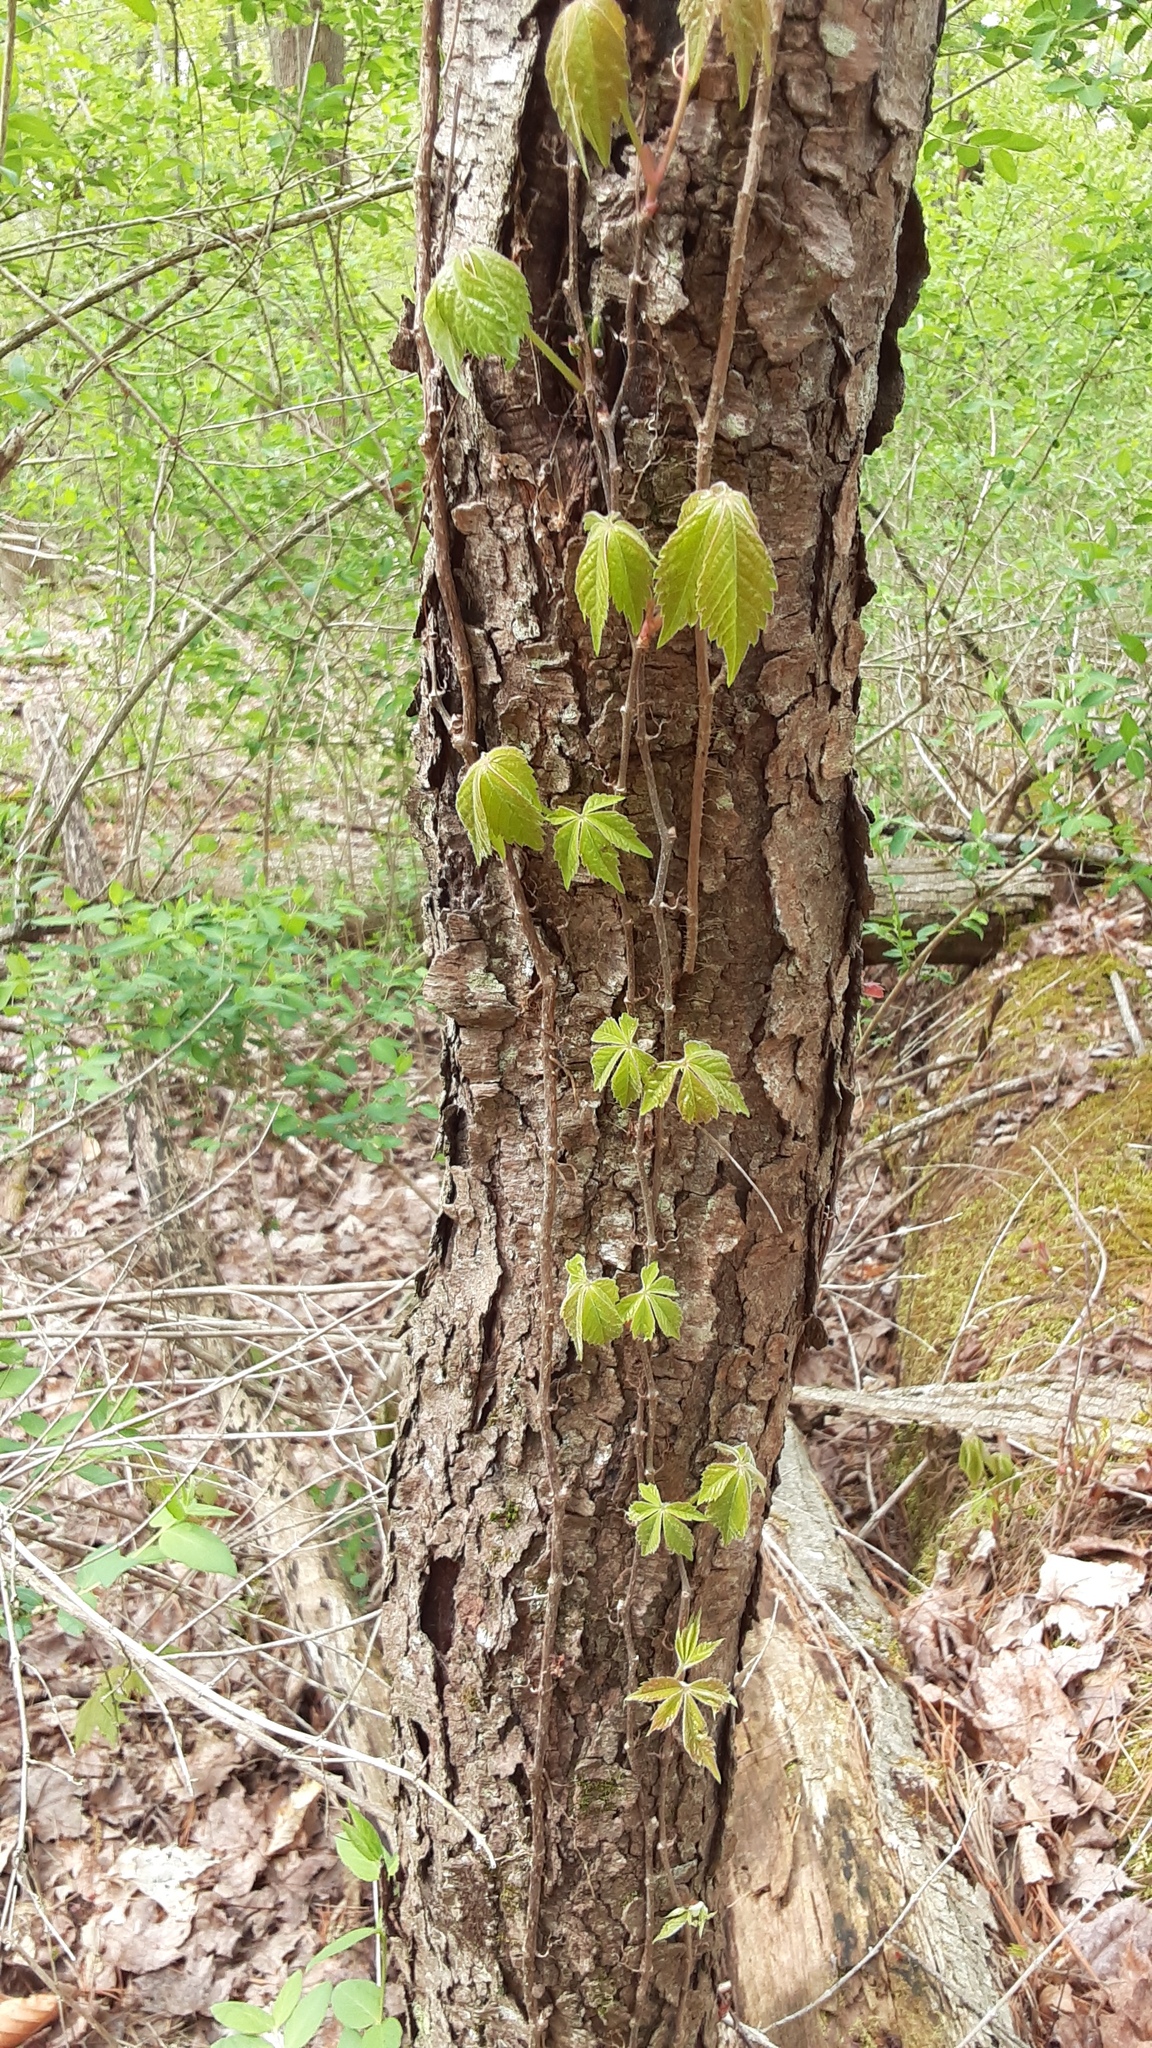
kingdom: Plantae
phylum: Tracheophyta
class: Magnoliopsida
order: Vitales
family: Vitaceae
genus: Parthenocissus
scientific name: Parthenocissus quinquefolia
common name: Virginia-creeper
